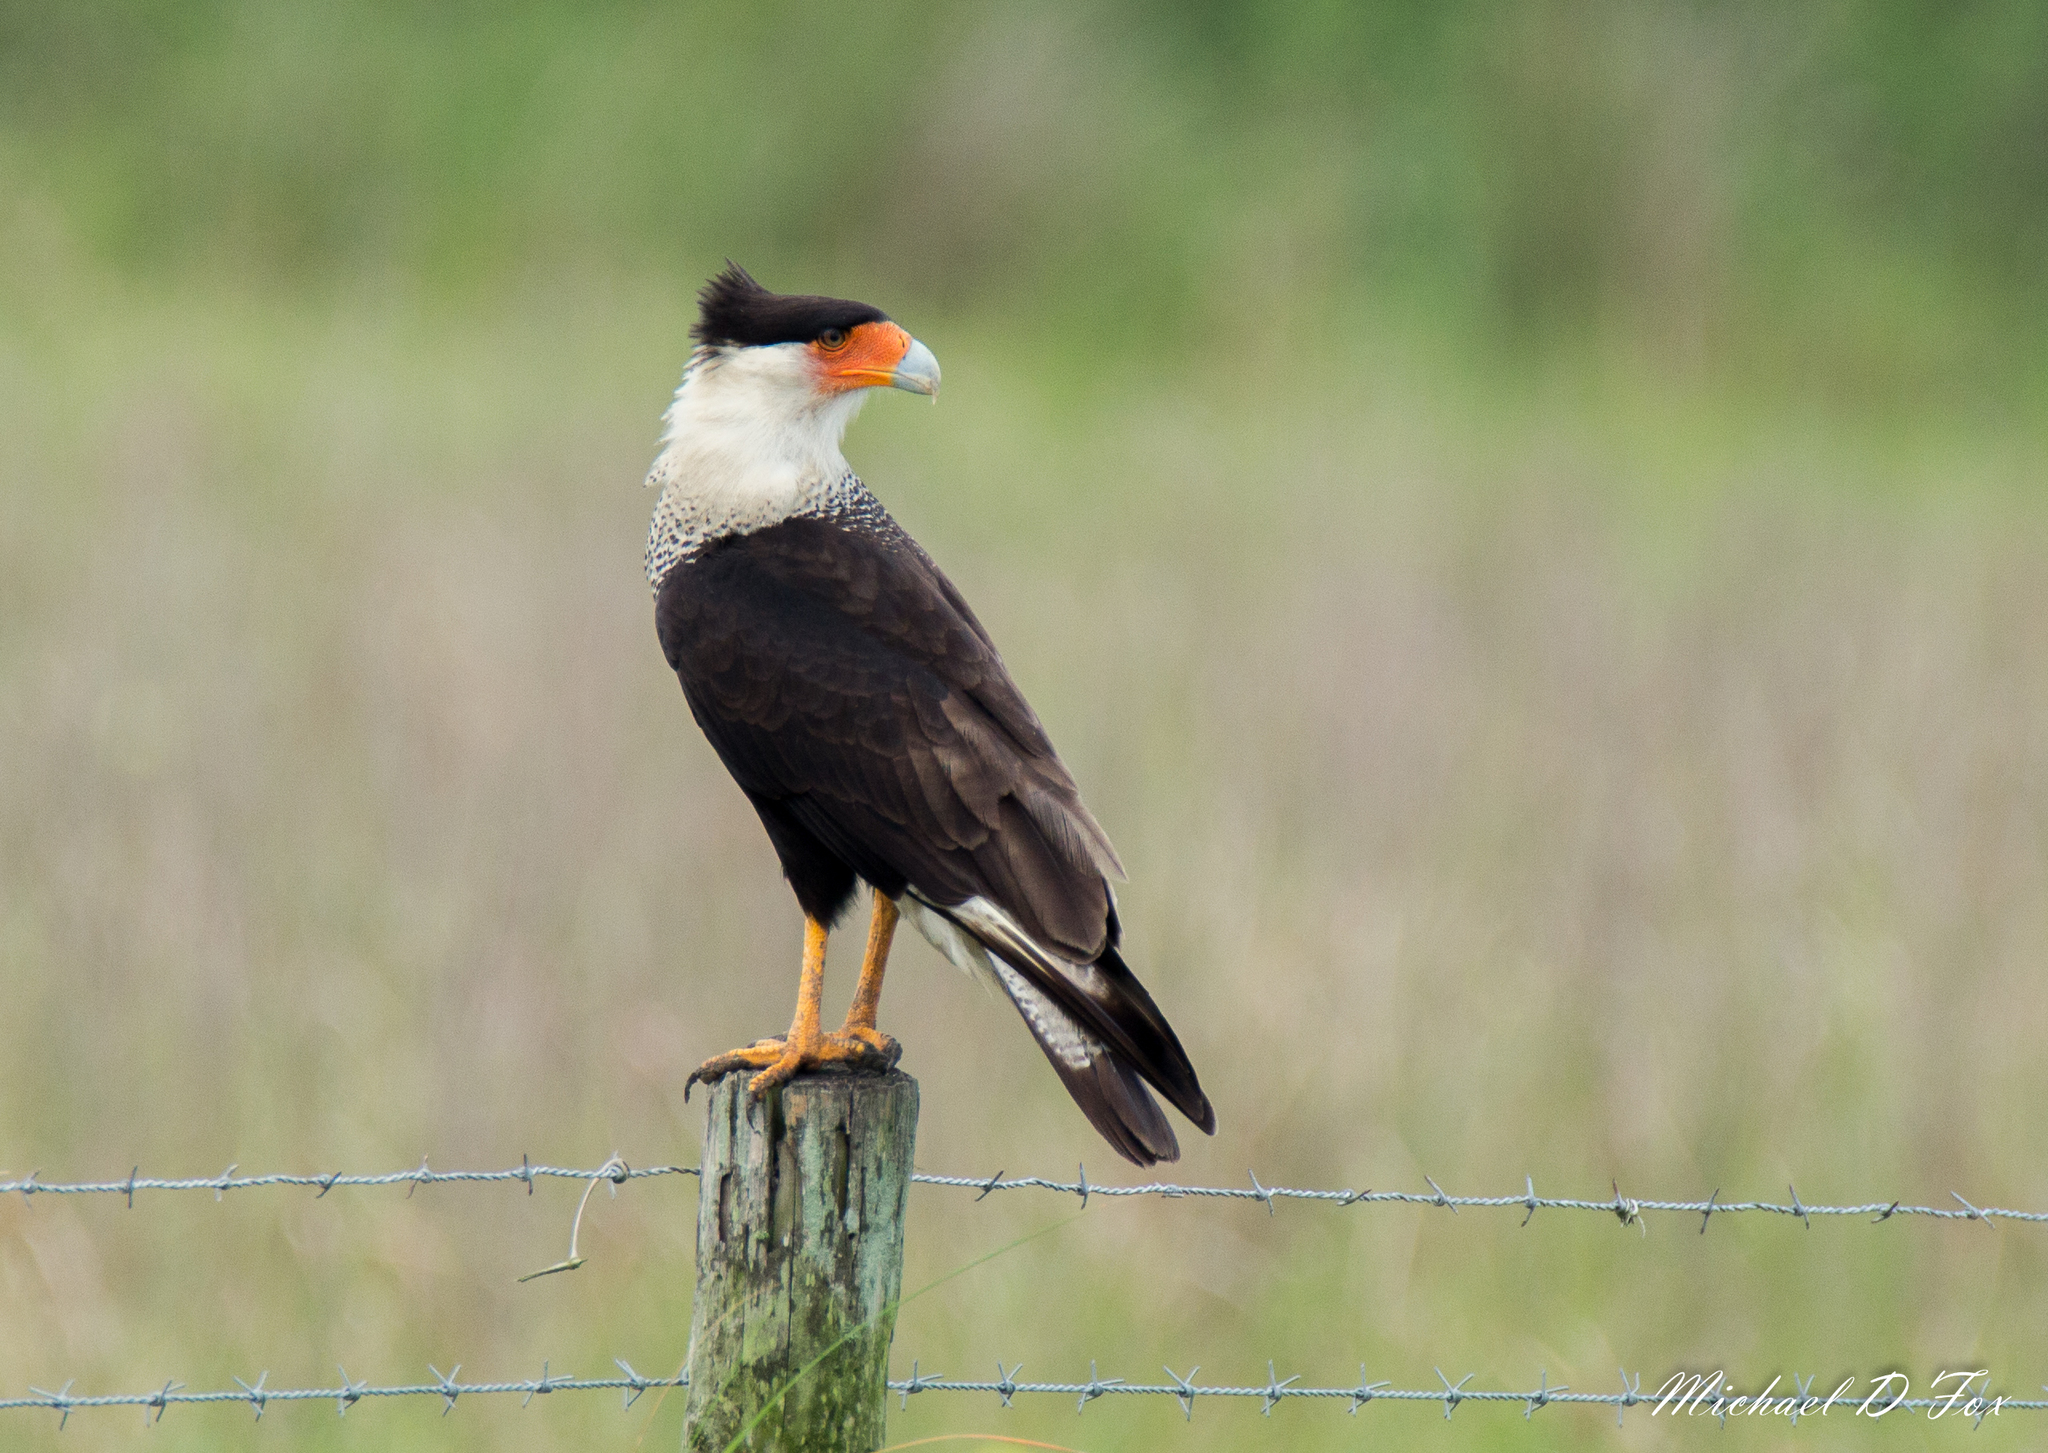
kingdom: Animalia
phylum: Chordata
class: Aves
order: Falconiformes
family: Falconidae
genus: Caracara
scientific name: Caracara plancus
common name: Southern caracara
